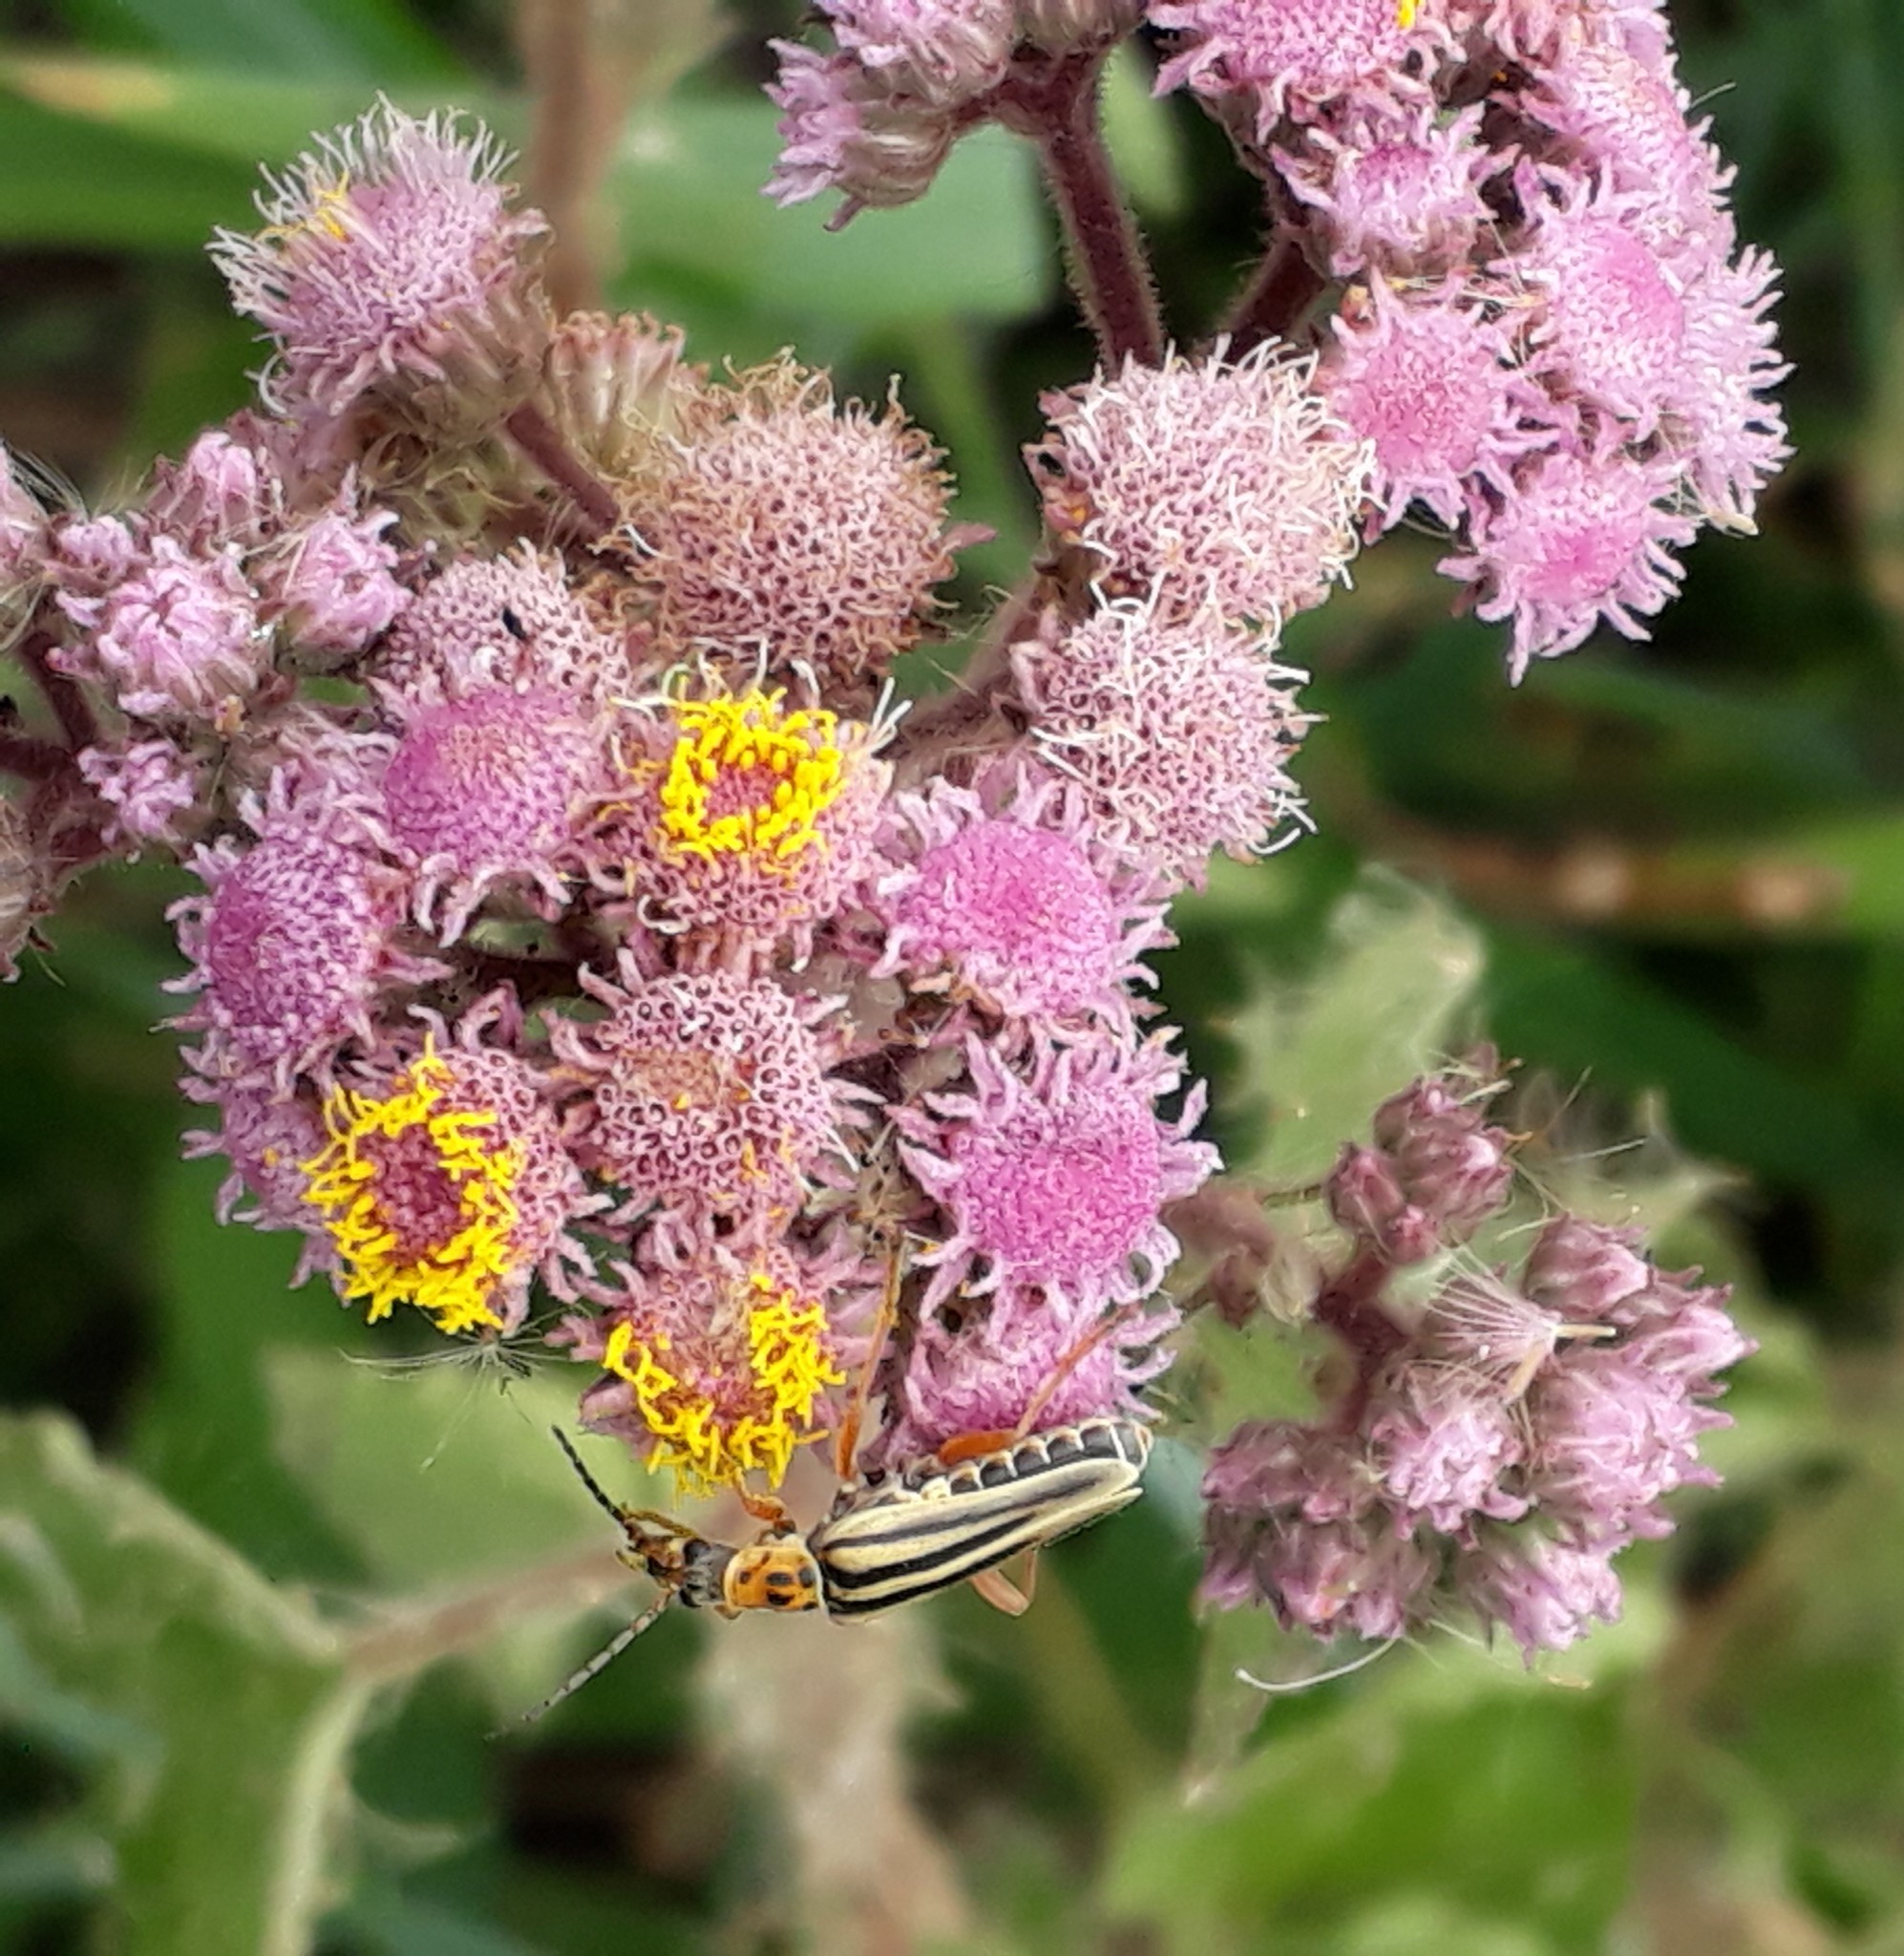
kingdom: Plantae
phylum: Tracheophyta
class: Magnoliopsida
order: Asterales
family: Asteraceae
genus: Urolepis
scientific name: Urolepis hecatantha
